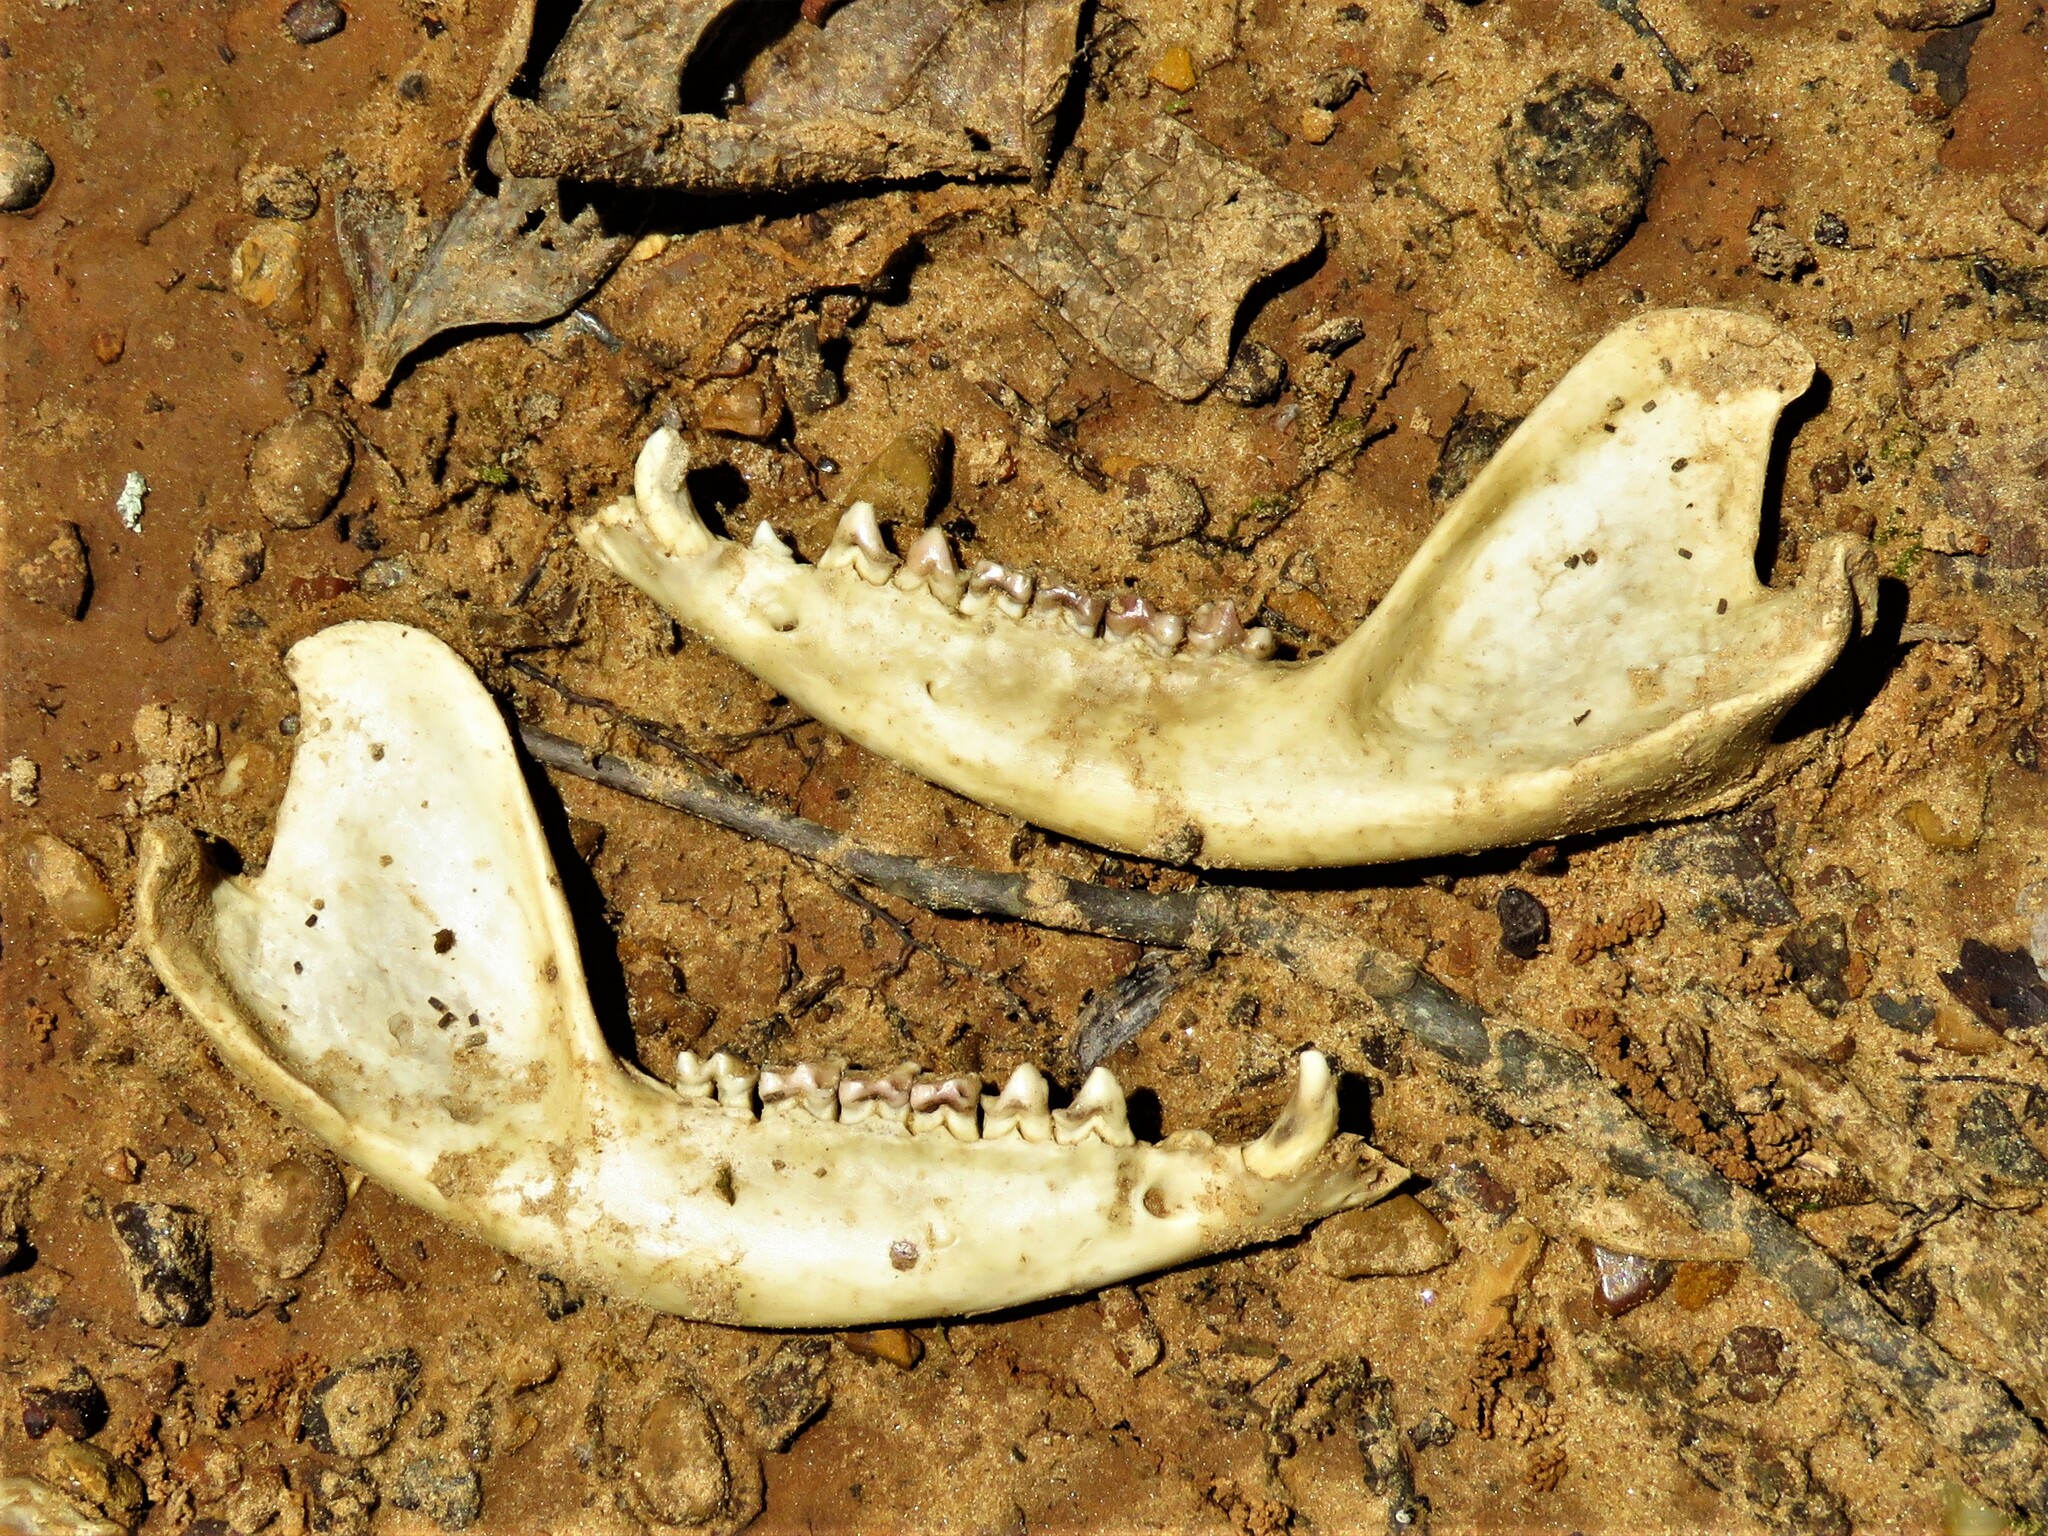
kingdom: Animalia
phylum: Chordata
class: Mammalia
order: Didelphimorphia
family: Didelphidae
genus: Didelphis
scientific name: Didelphis virginiana
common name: Virginia opossum
